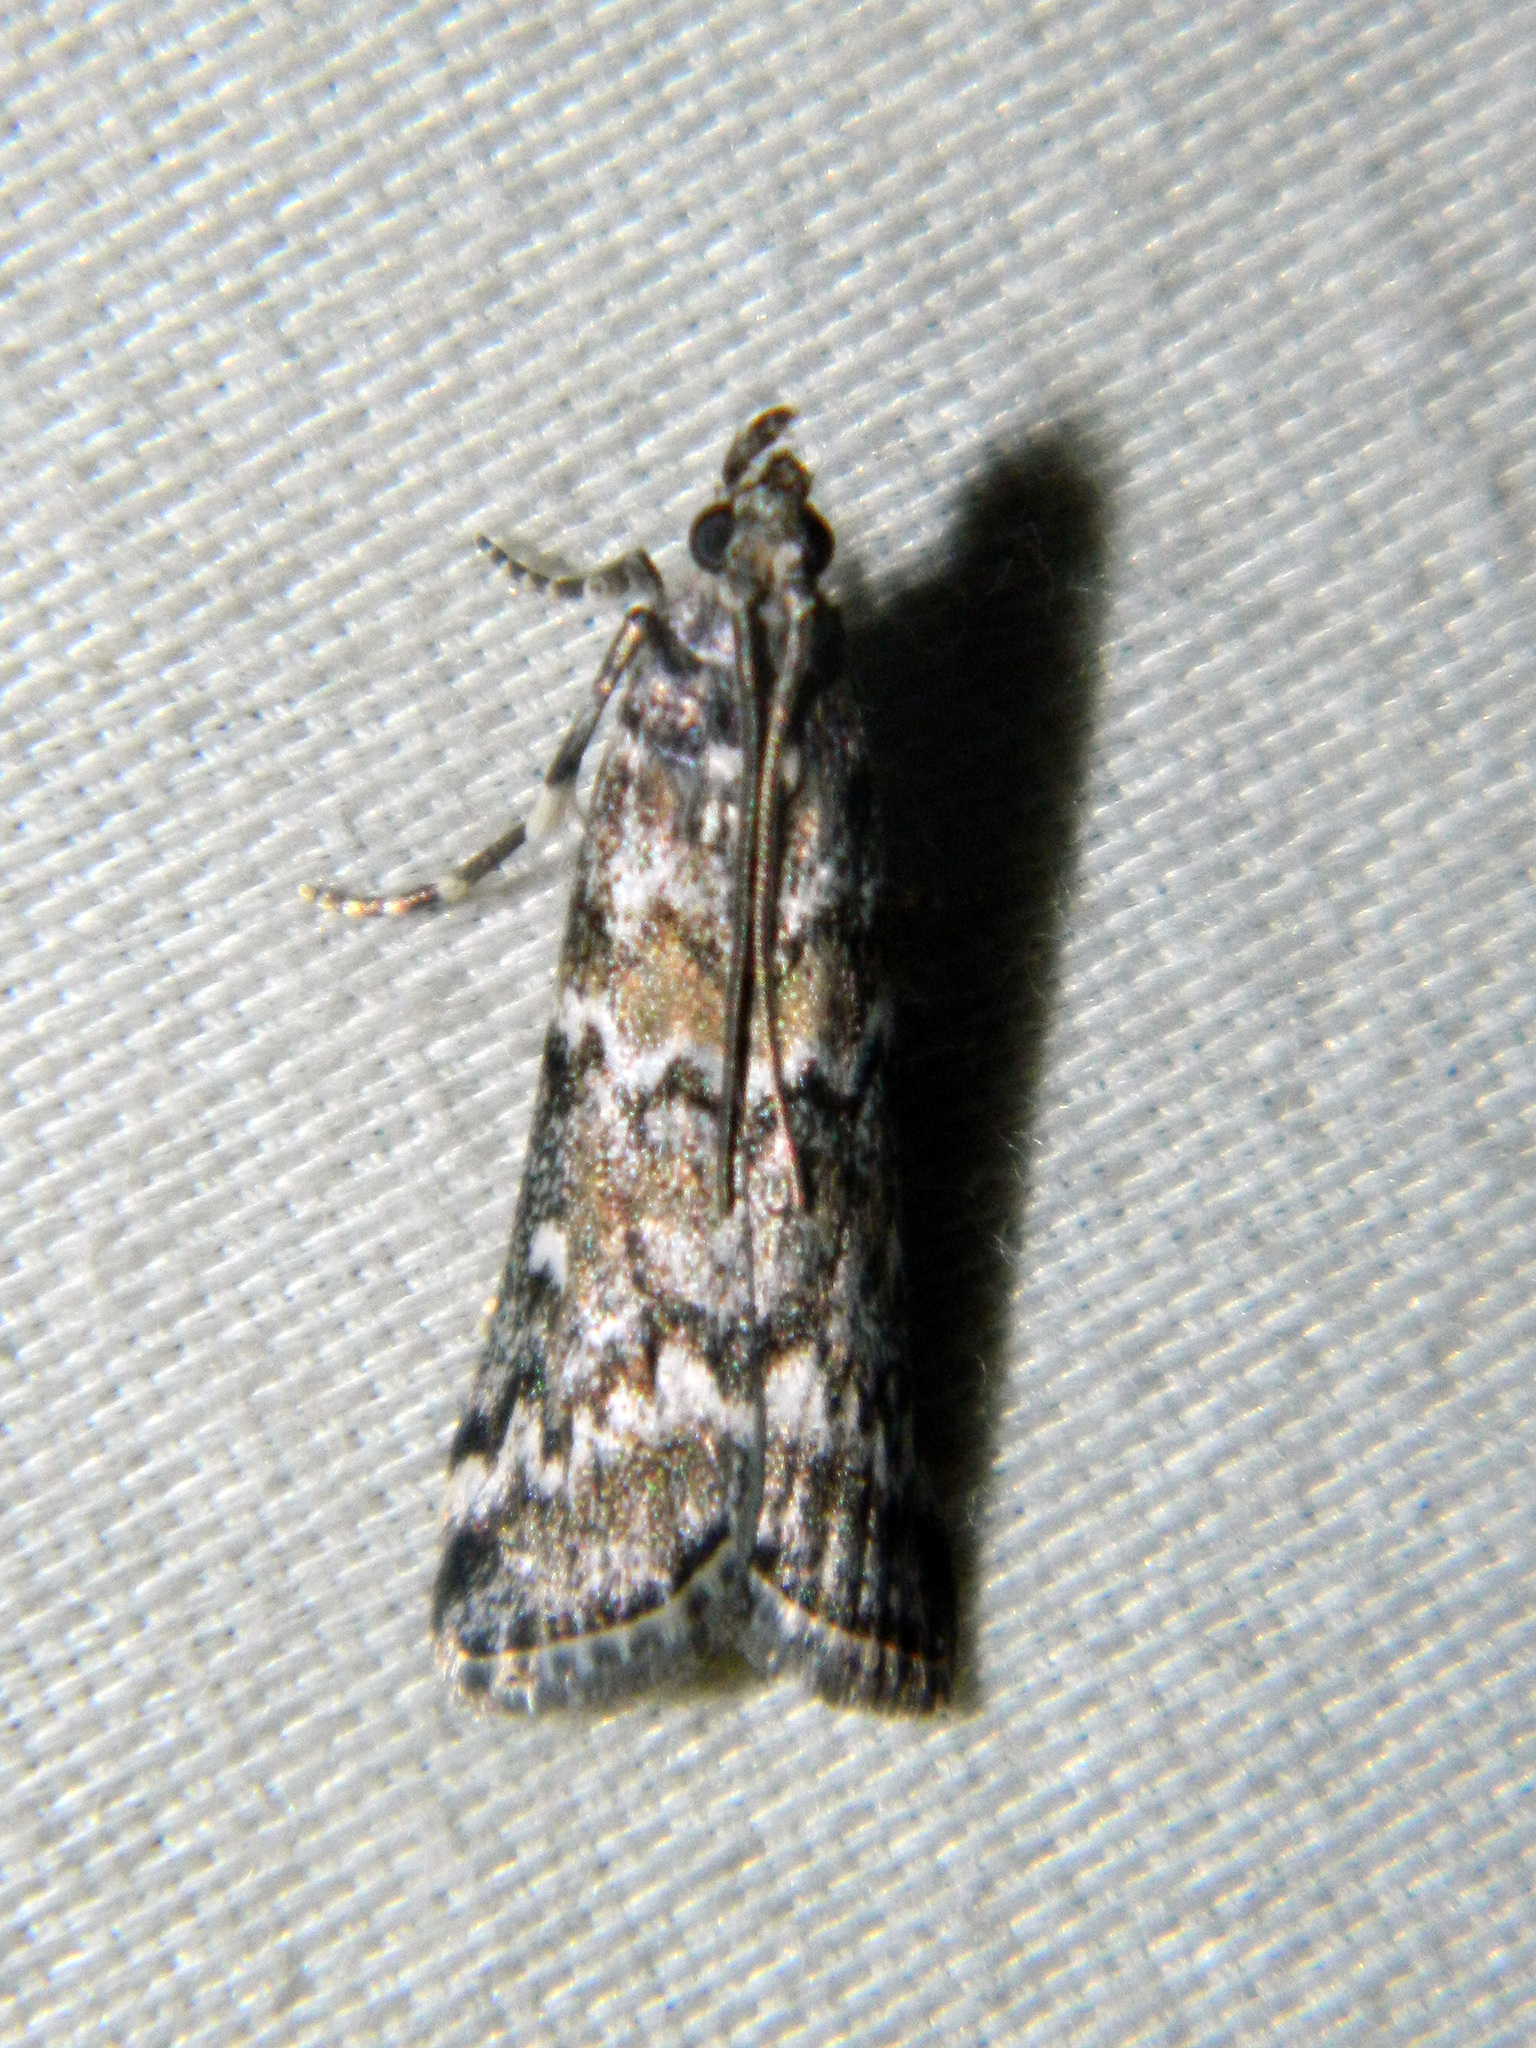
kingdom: Animalia
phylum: Arthropoda
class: Insecta
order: Lepidoptera
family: Pyralidae
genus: Dioryctria
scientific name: Dioryctria reniculelloides
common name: Spruce coneworm moth
